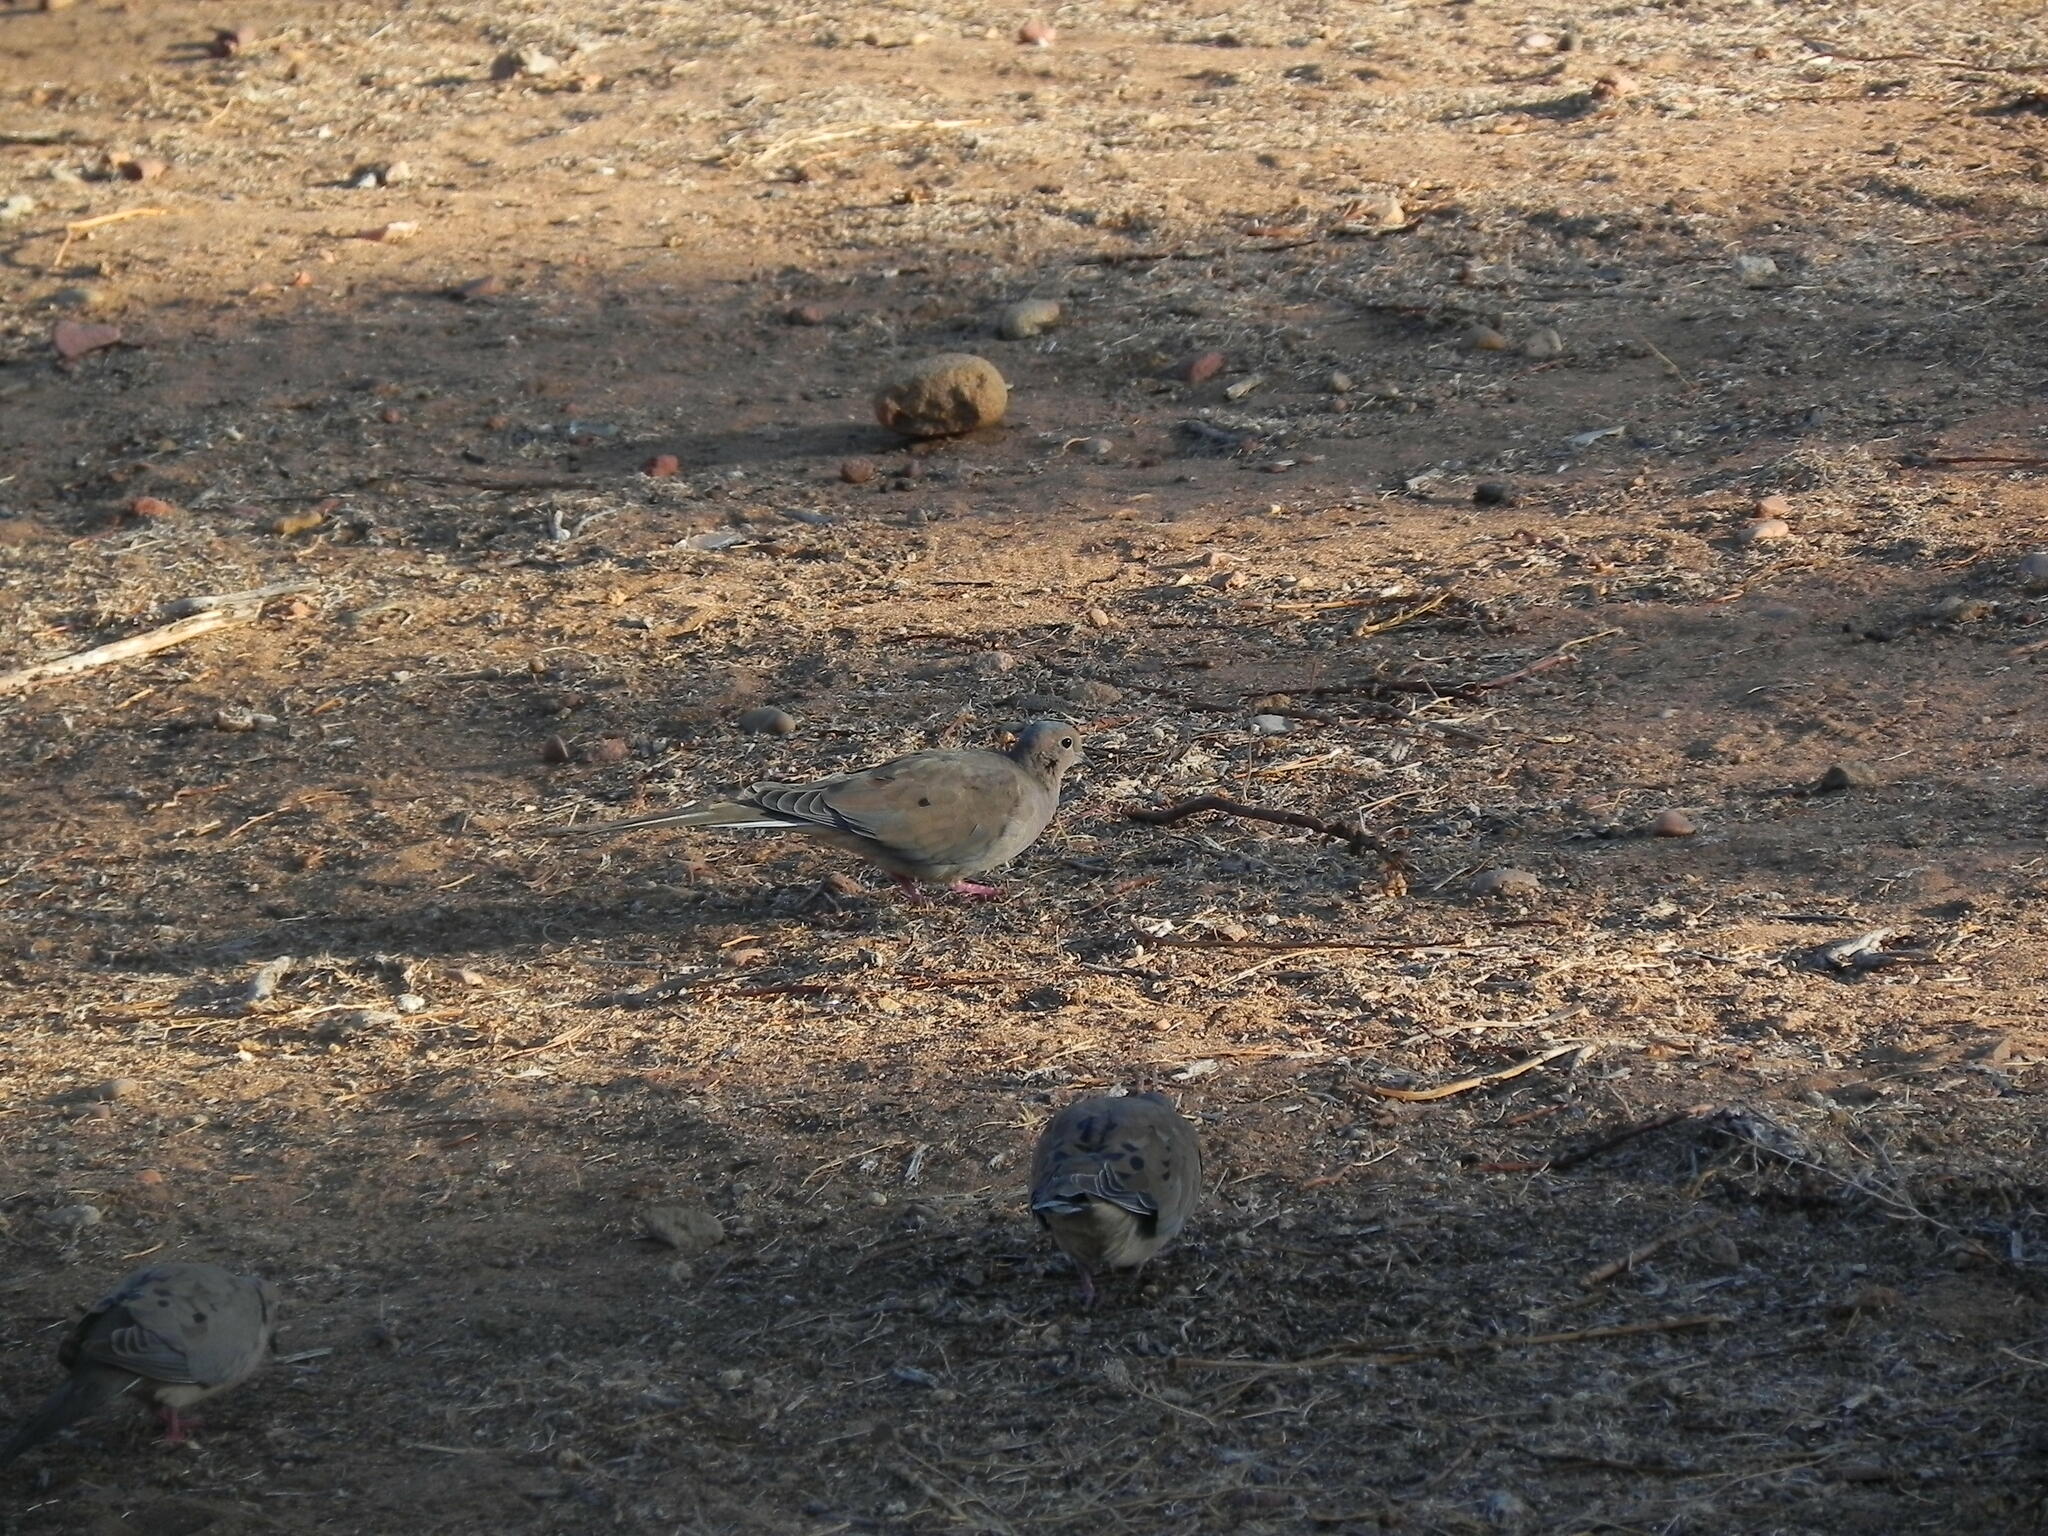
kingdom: Animalia
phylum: Chordata
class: Aves
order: Columbiformes
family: Columbidae
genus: Zenaida
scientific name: Zenaida macroura
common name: Mourning dove
